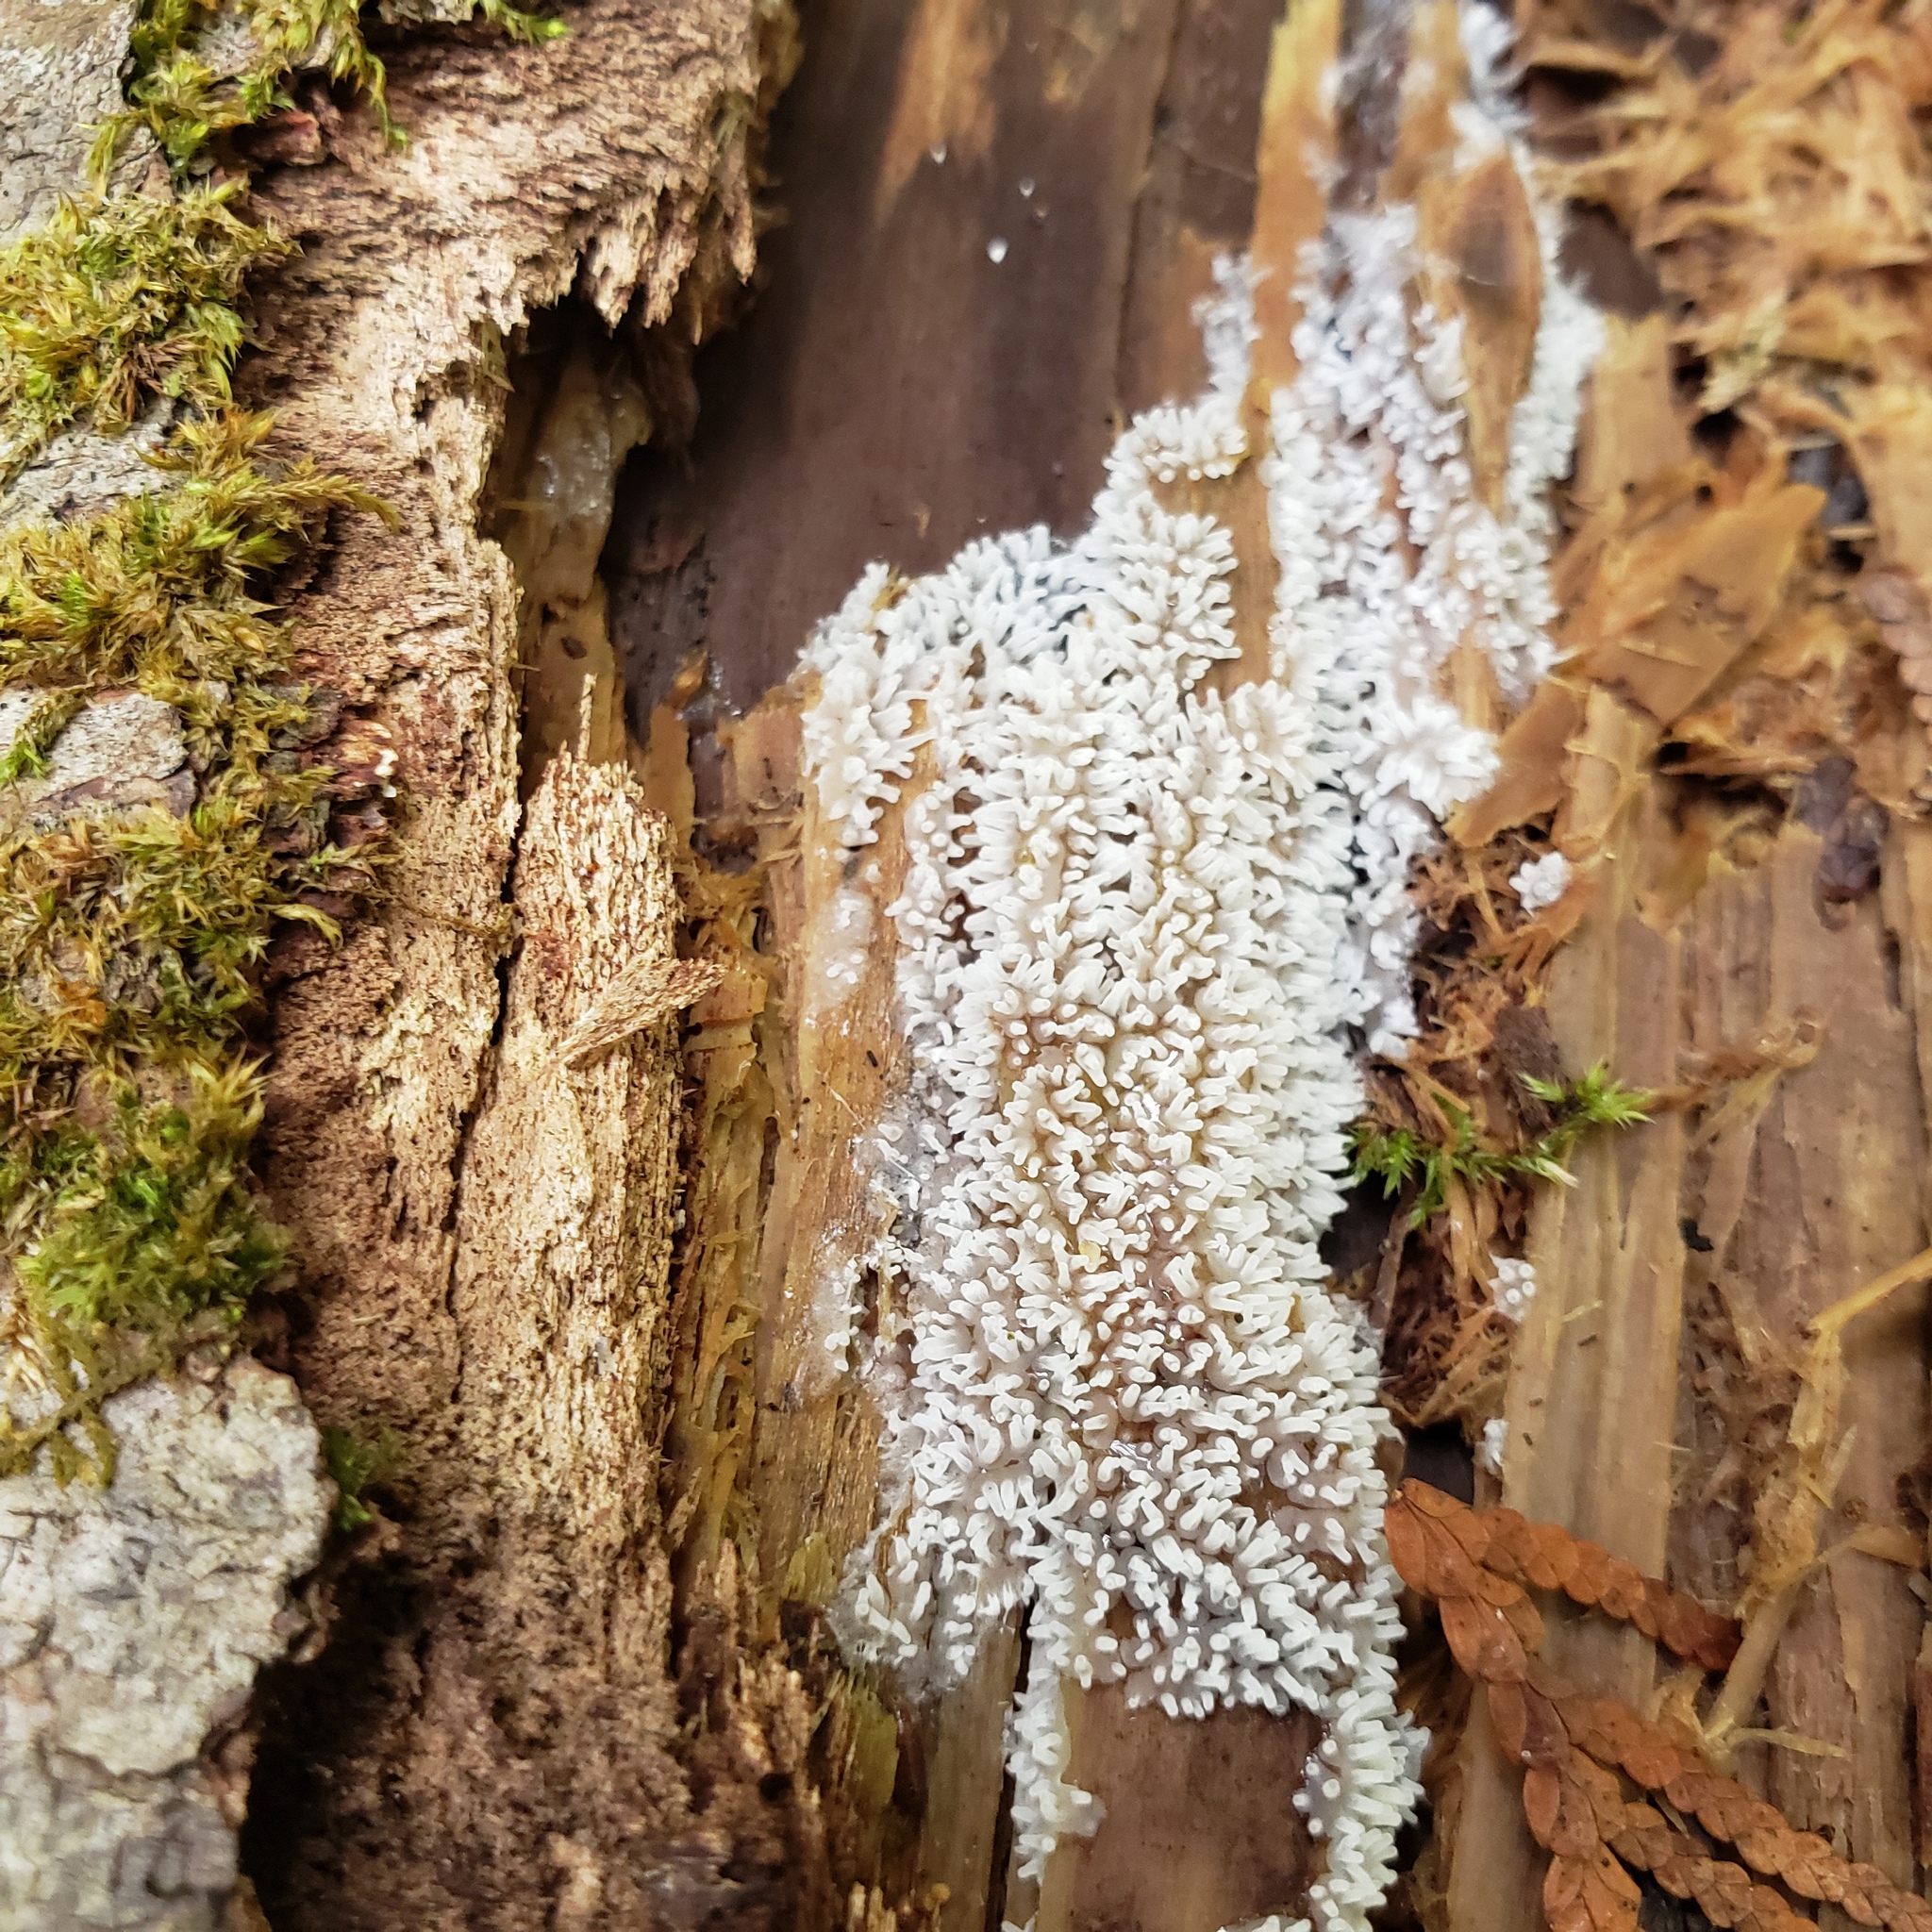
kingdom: Protozoa
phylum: Mycetozoa
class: Protosteliomycetes
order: Ceratiomyxales
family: Ceratiomyxaceae
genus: Ceratiomyxa
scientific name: Ceratiomyxa fruticulosa
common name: Honeycomb coral slime mold
